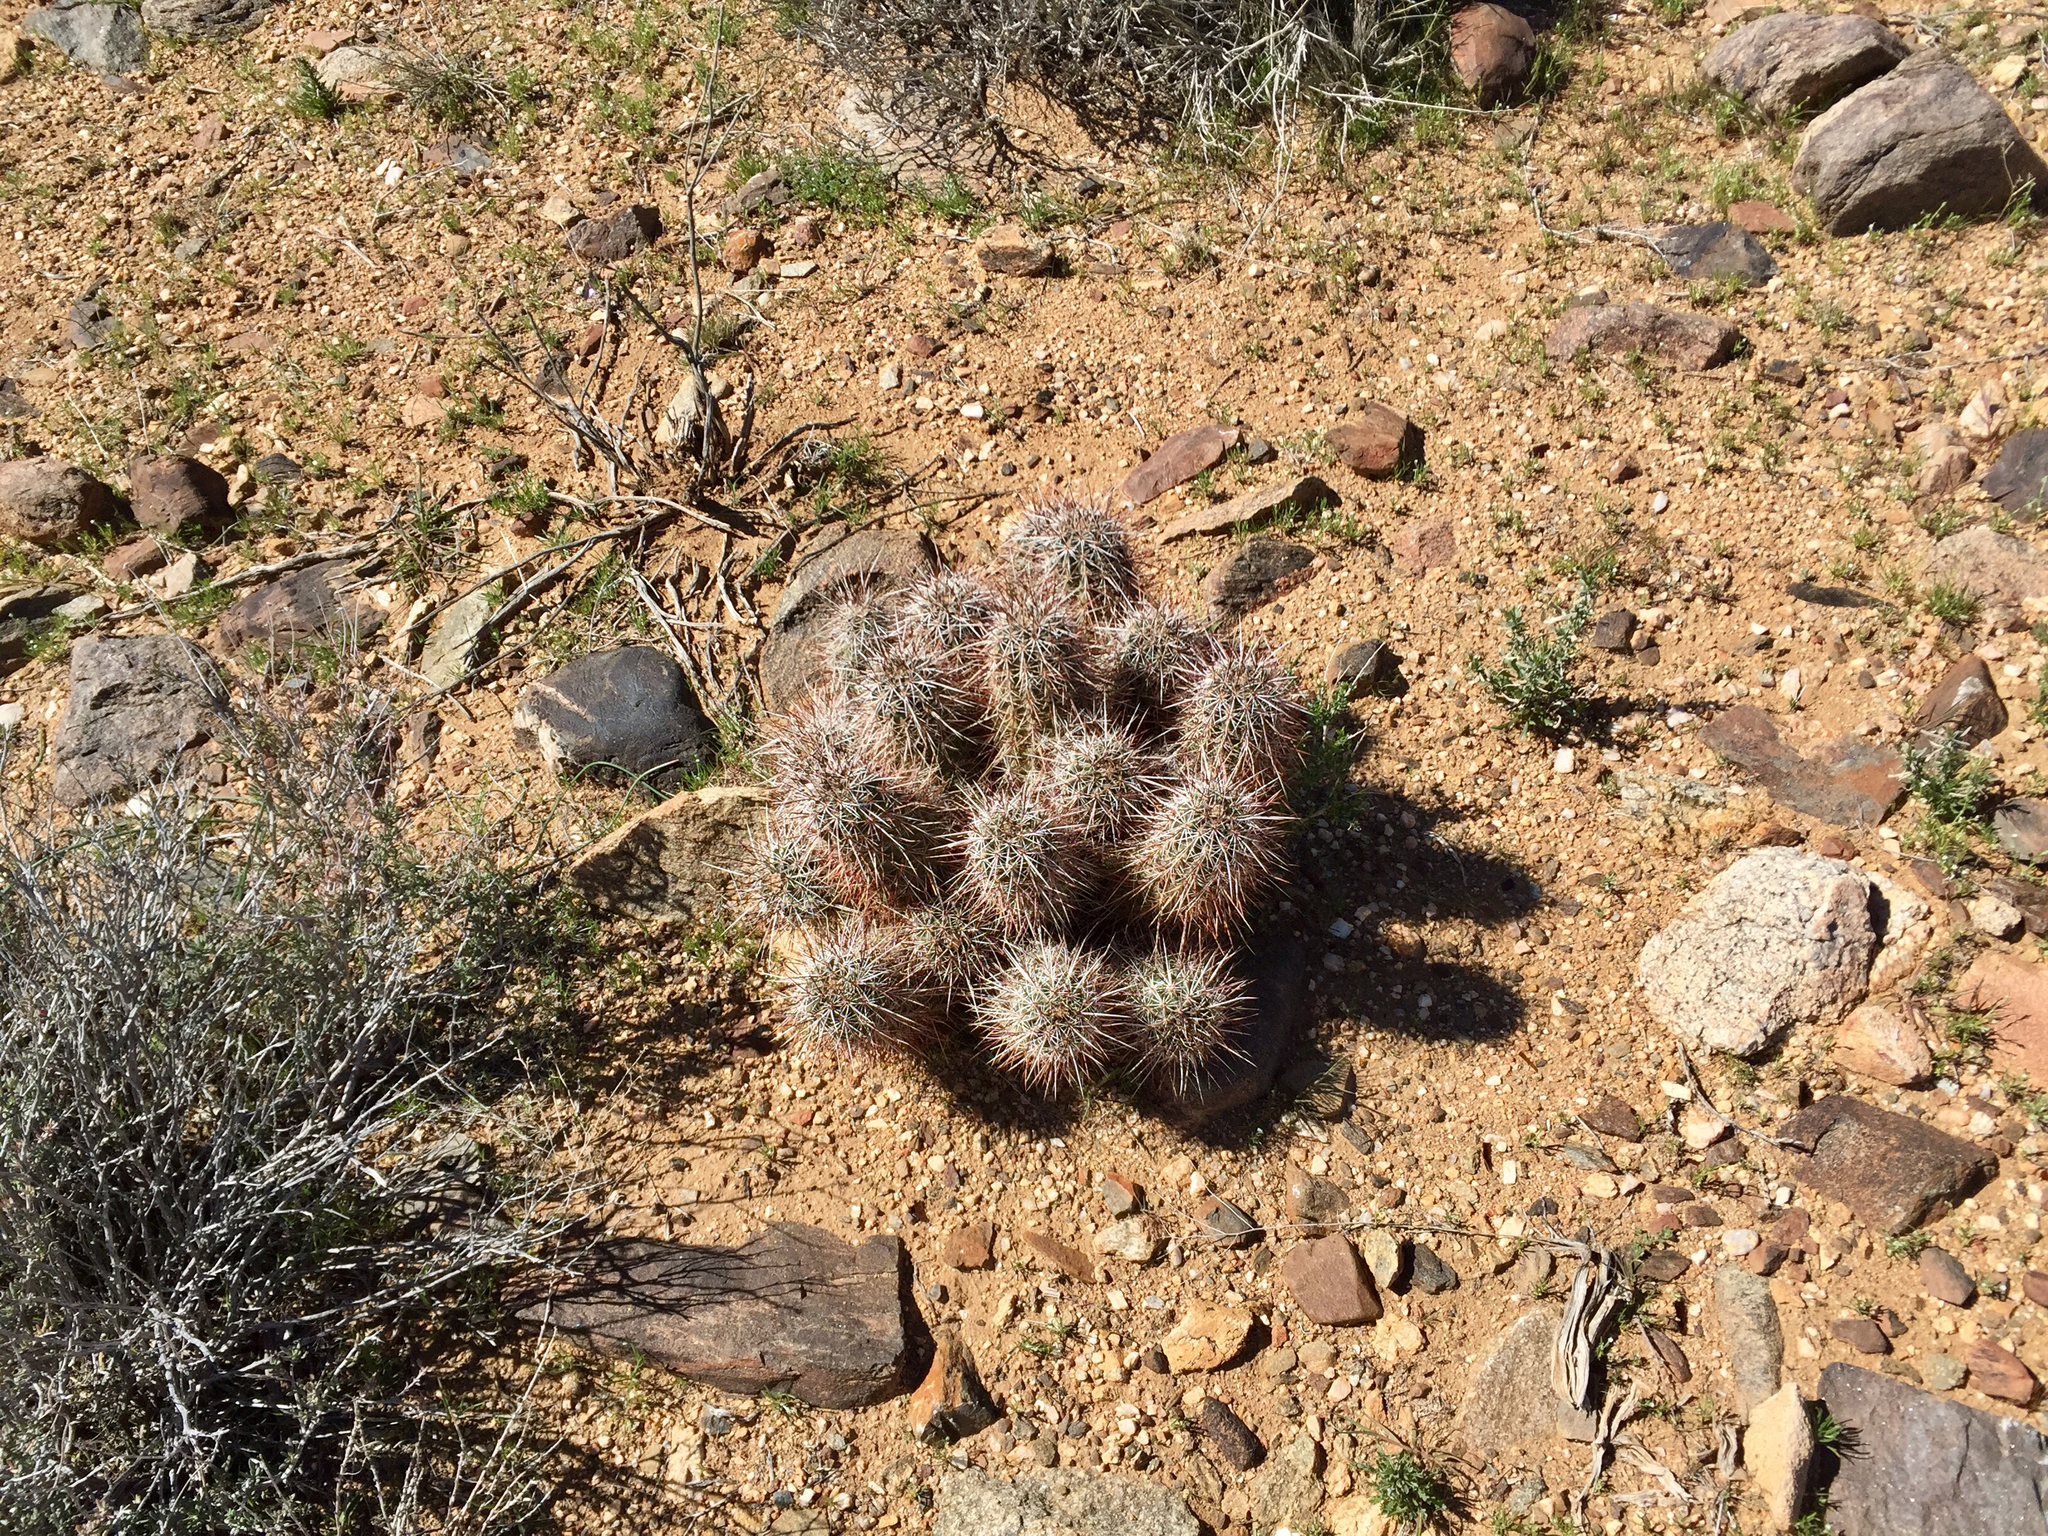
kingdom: Plantae
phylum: Tracheophyta
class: Magnoliopsida
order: Caryophyllales
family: Cactaceae
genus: Echinocereus
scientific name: Echinocereus engelmannii
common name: Engelmann's hedgehog cactus
